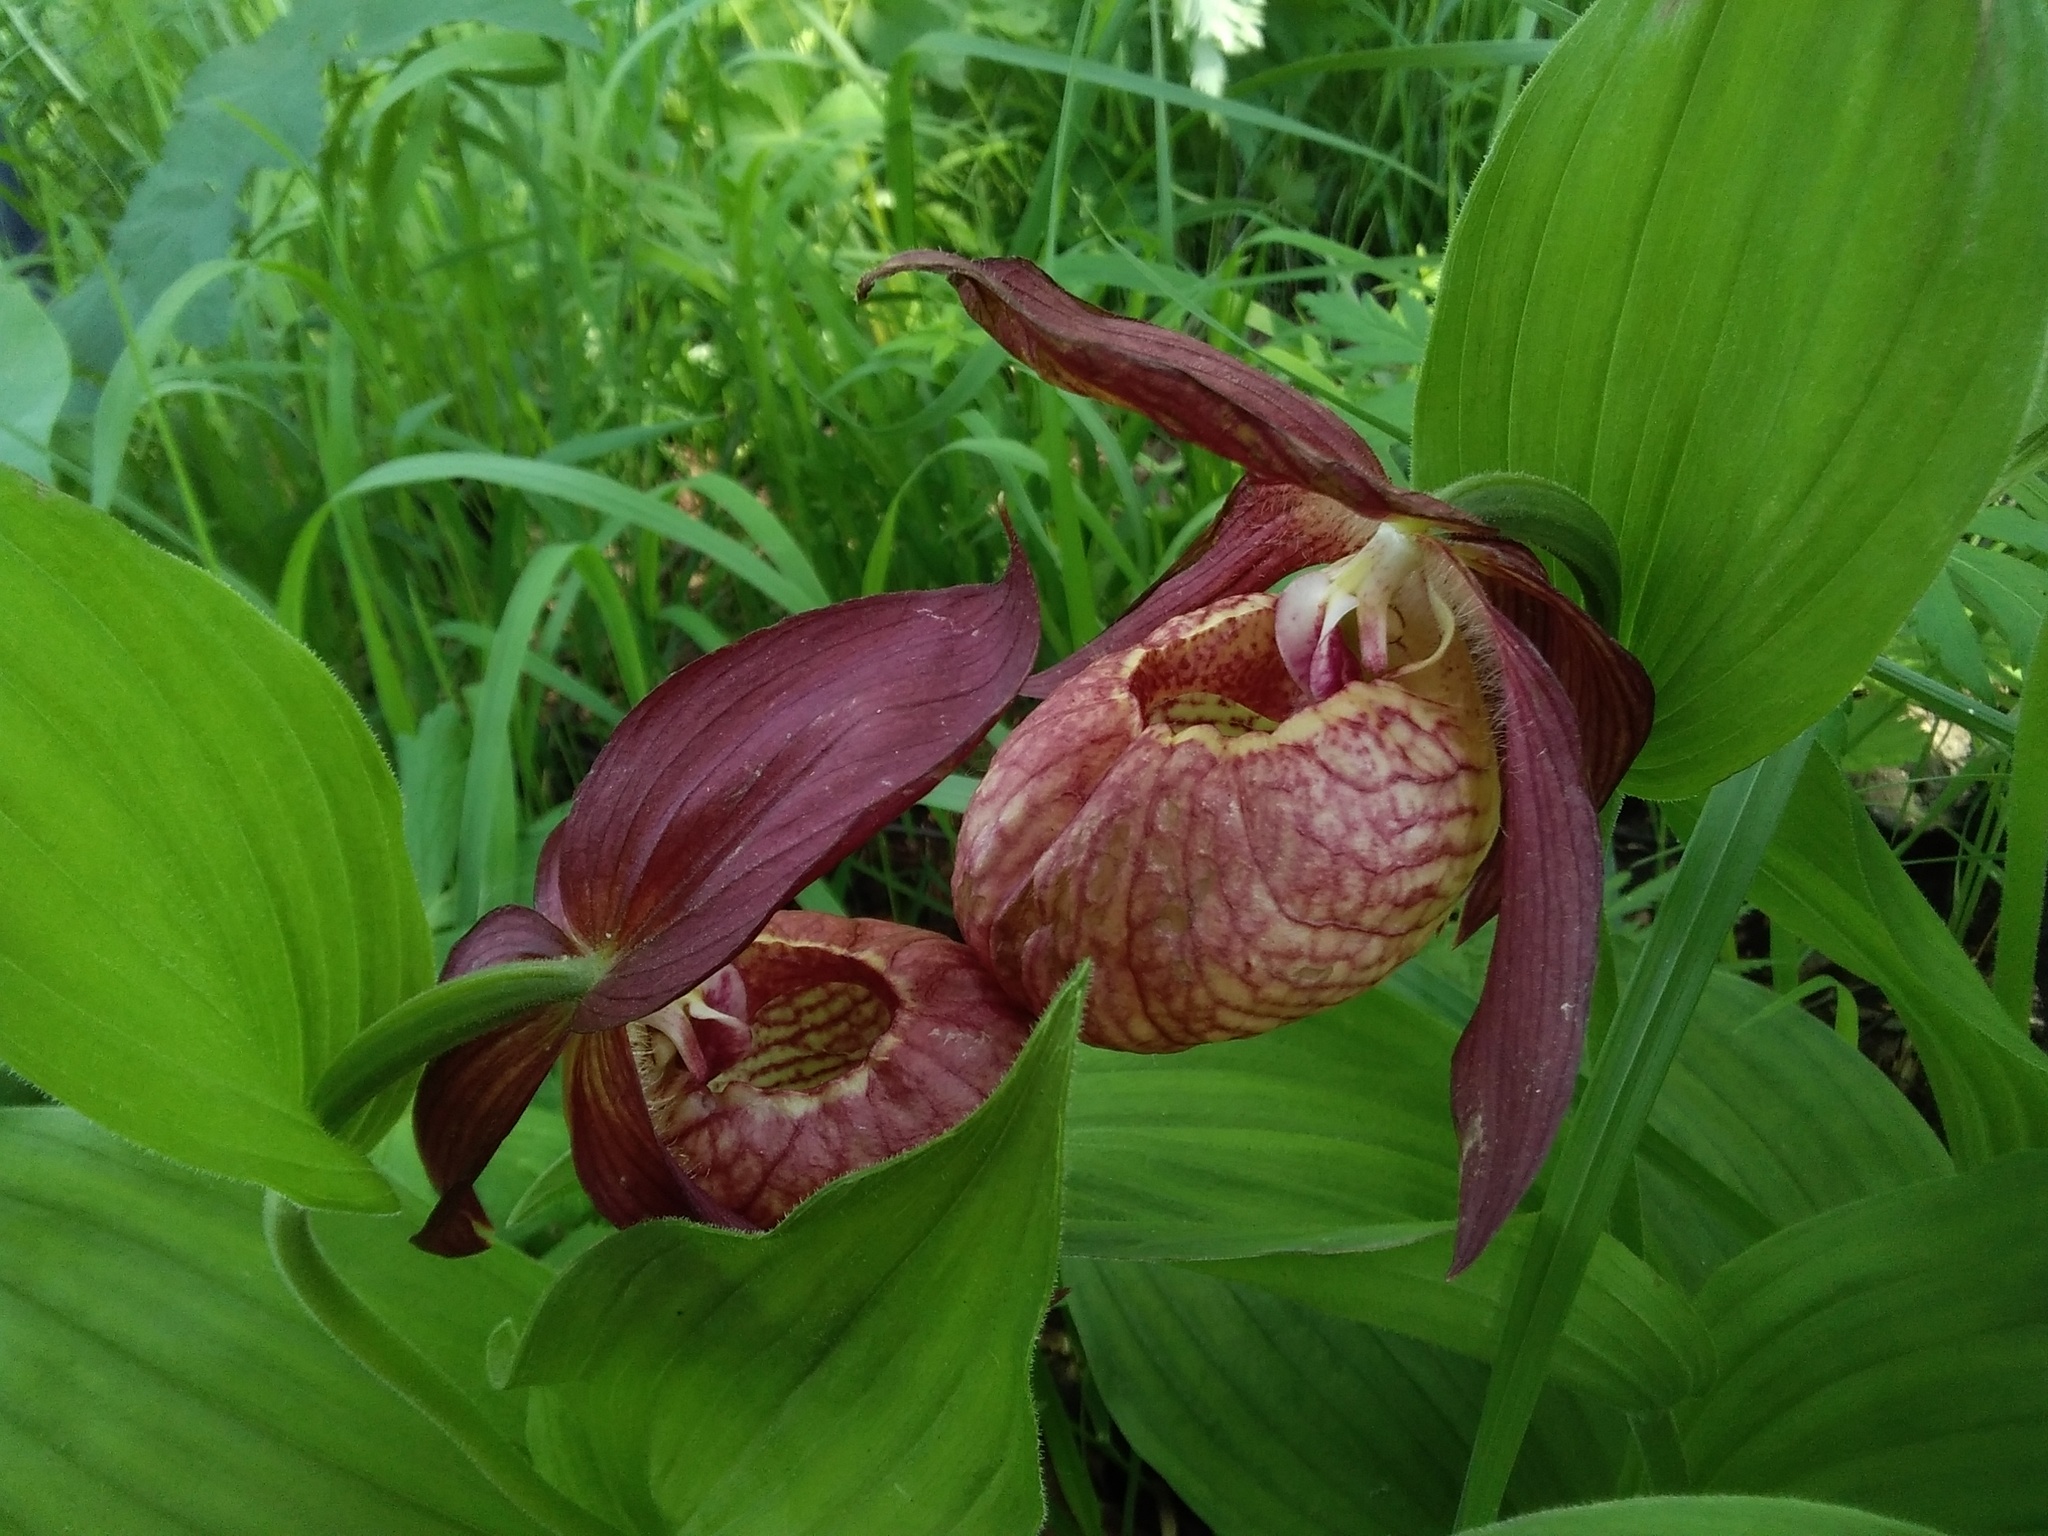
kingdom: Plantae
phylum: Tracheophyta
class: Liliopsida
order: Asparagales
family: Orchidaceae
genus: Cypripedium
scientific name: Cypripedium ventricosum
